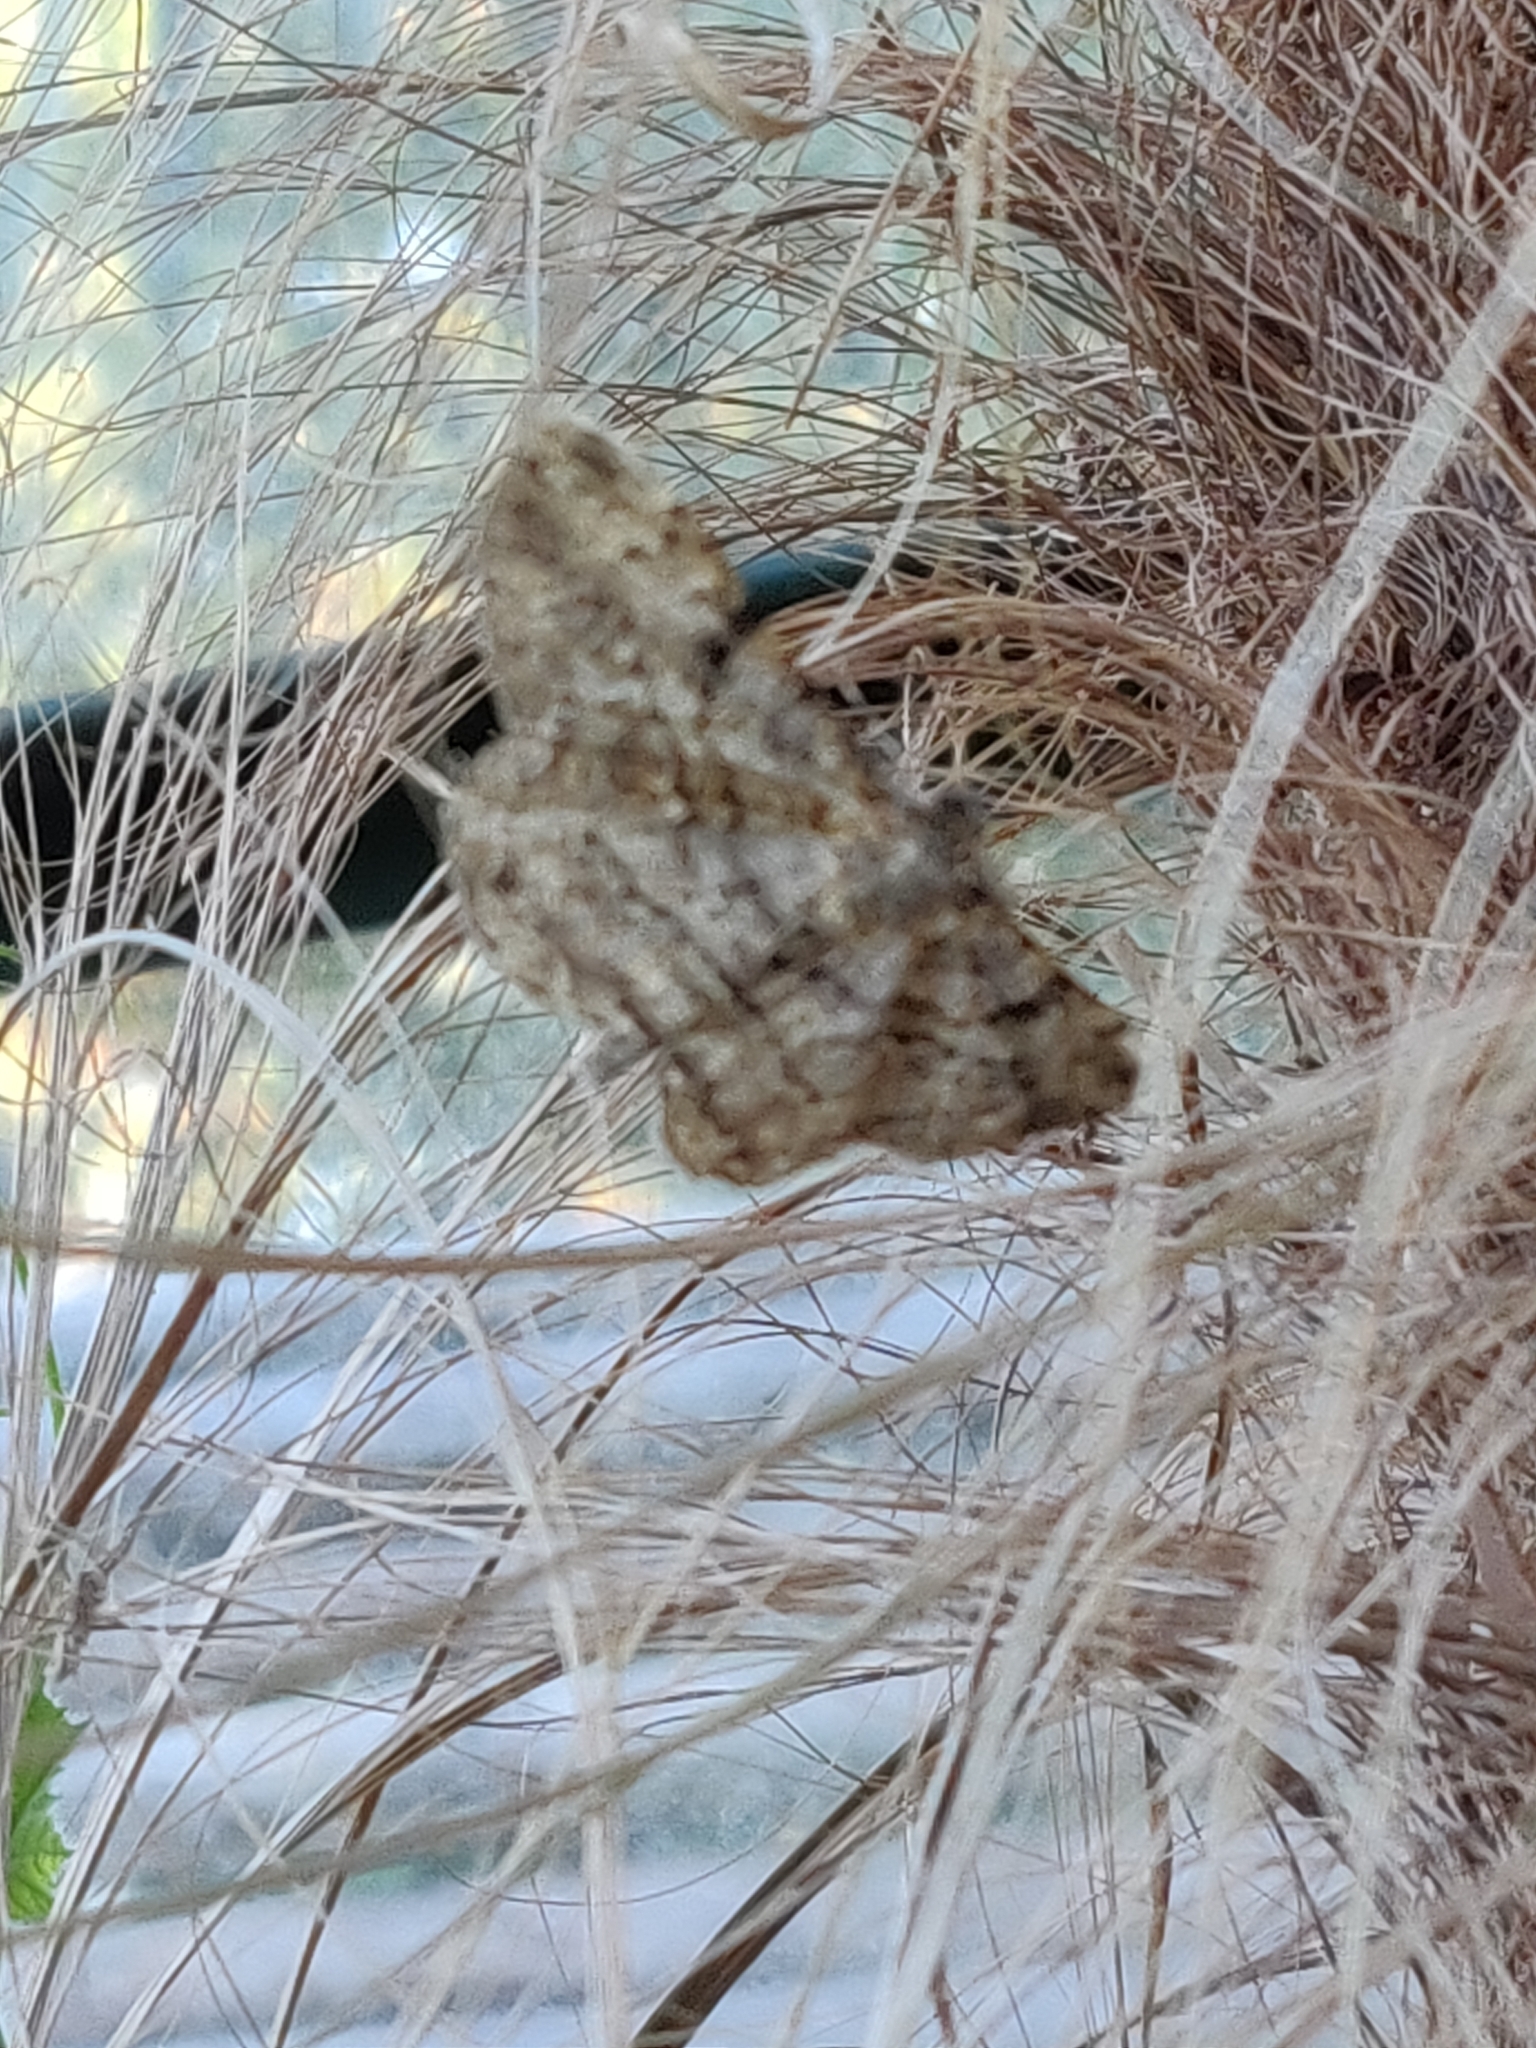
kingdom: Animalia
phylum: Arthropoda
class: Insecta
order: Lepidoptera
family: Geometridae
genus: Peribatodes
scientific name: Peribatodes rhomboidaria
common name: Willow beauty
